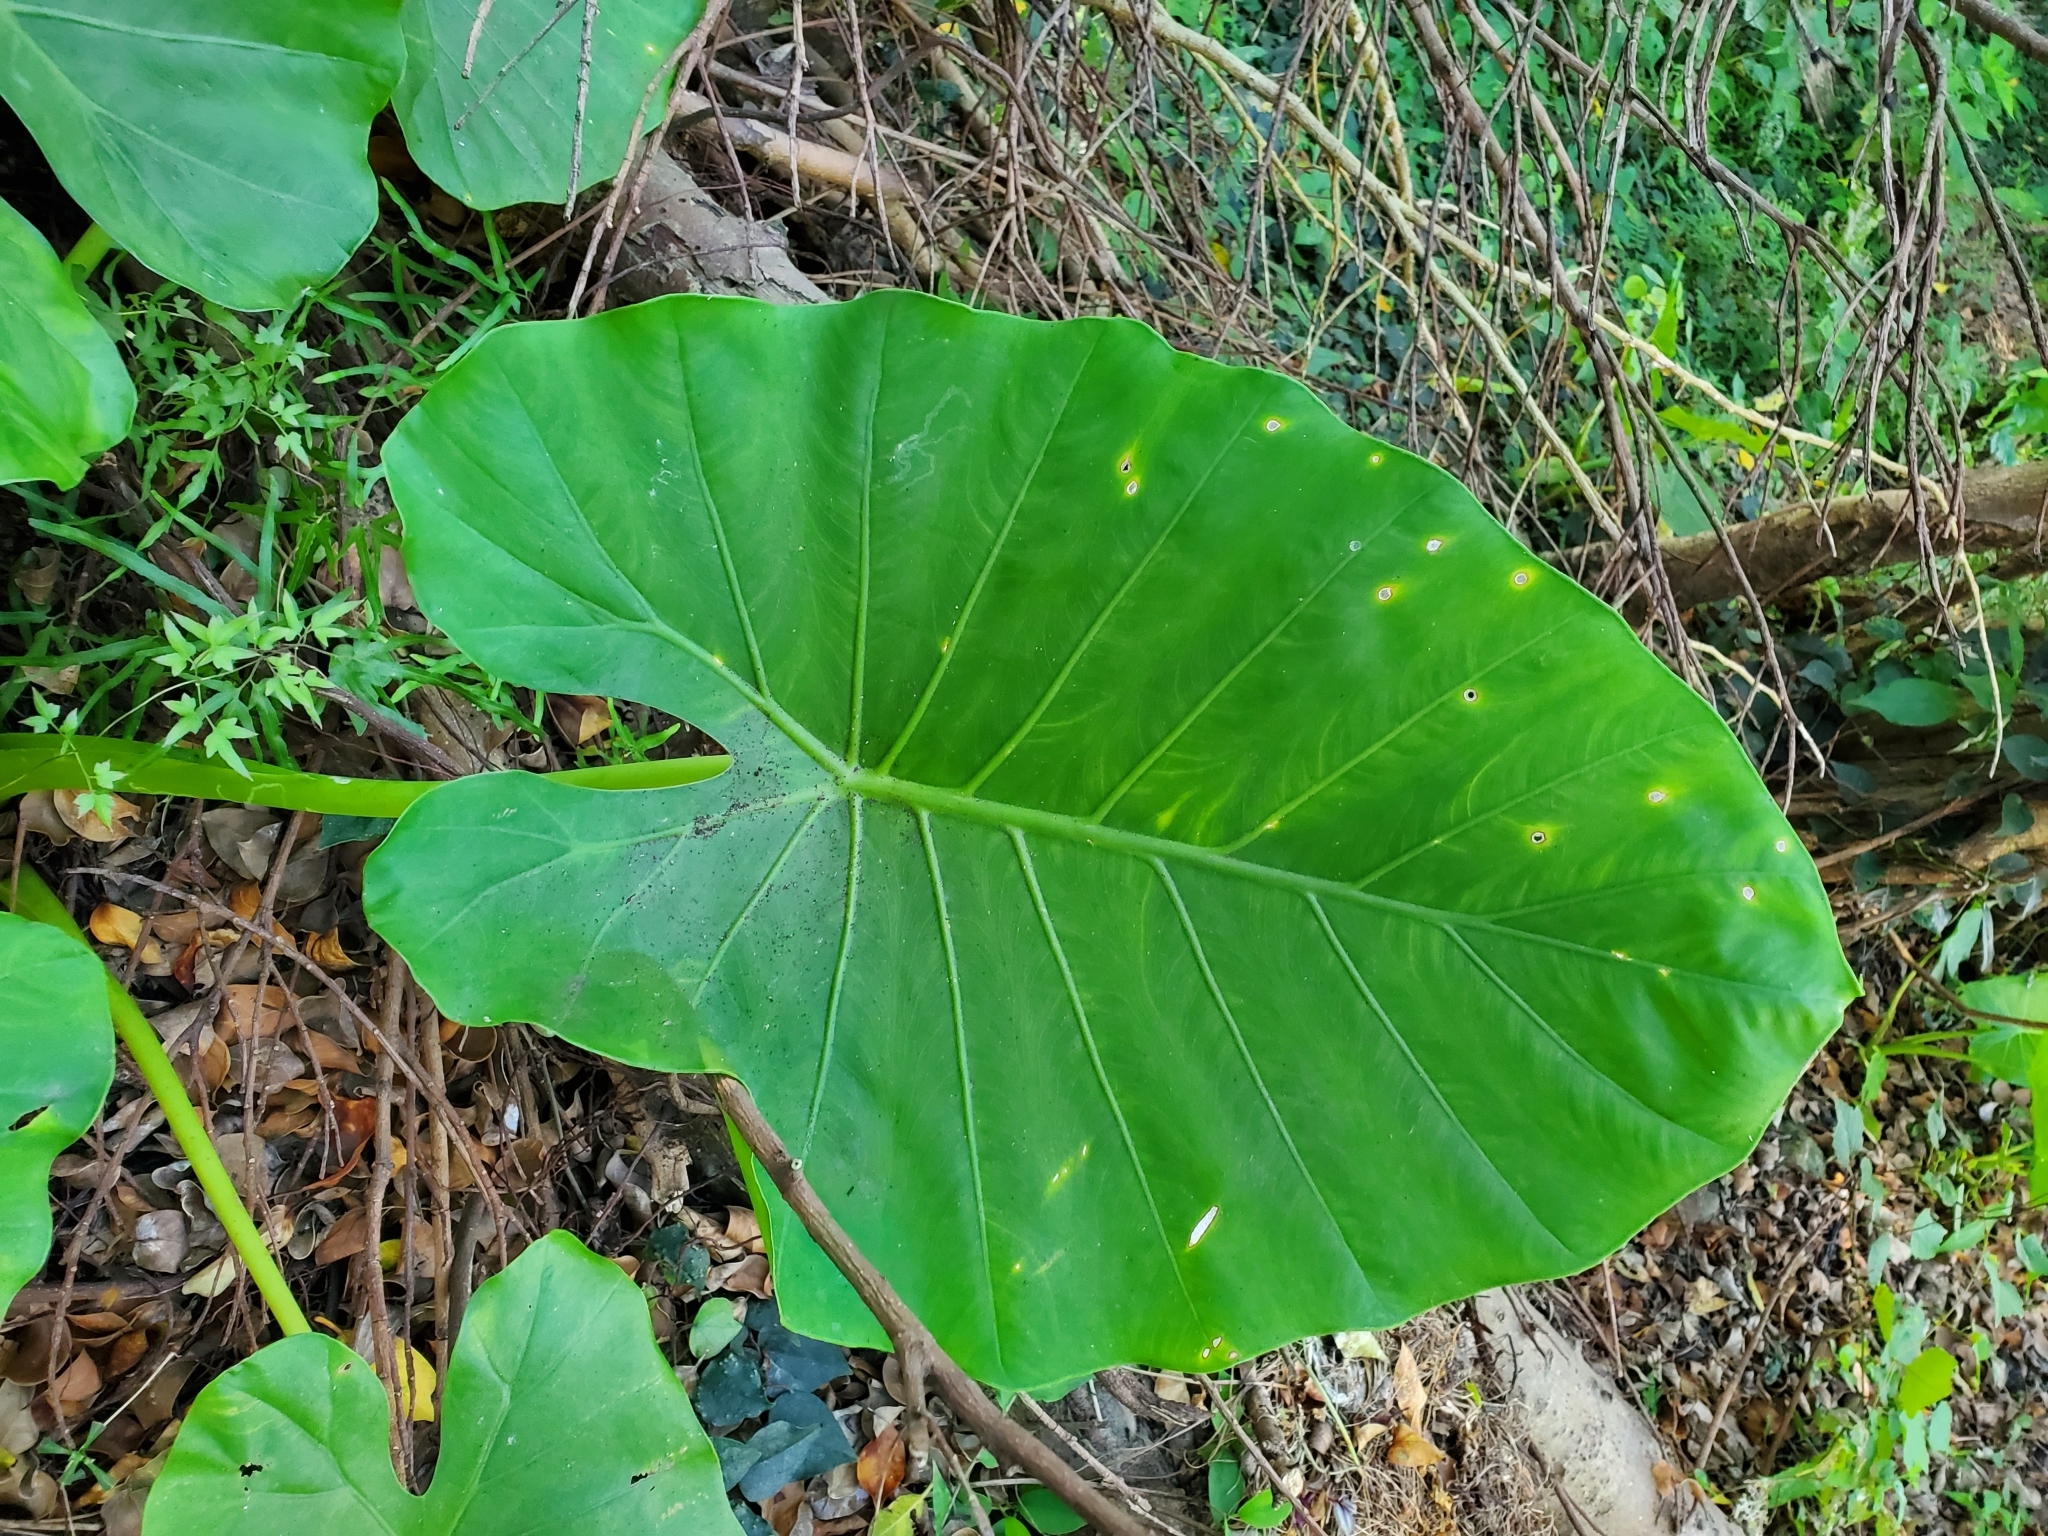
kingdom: Plantae
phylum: Tracheophyta
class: Liliopsida
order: Alismatales
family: Araceae
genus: Alocasia
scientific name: Alocasia odora
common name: Asian taro
